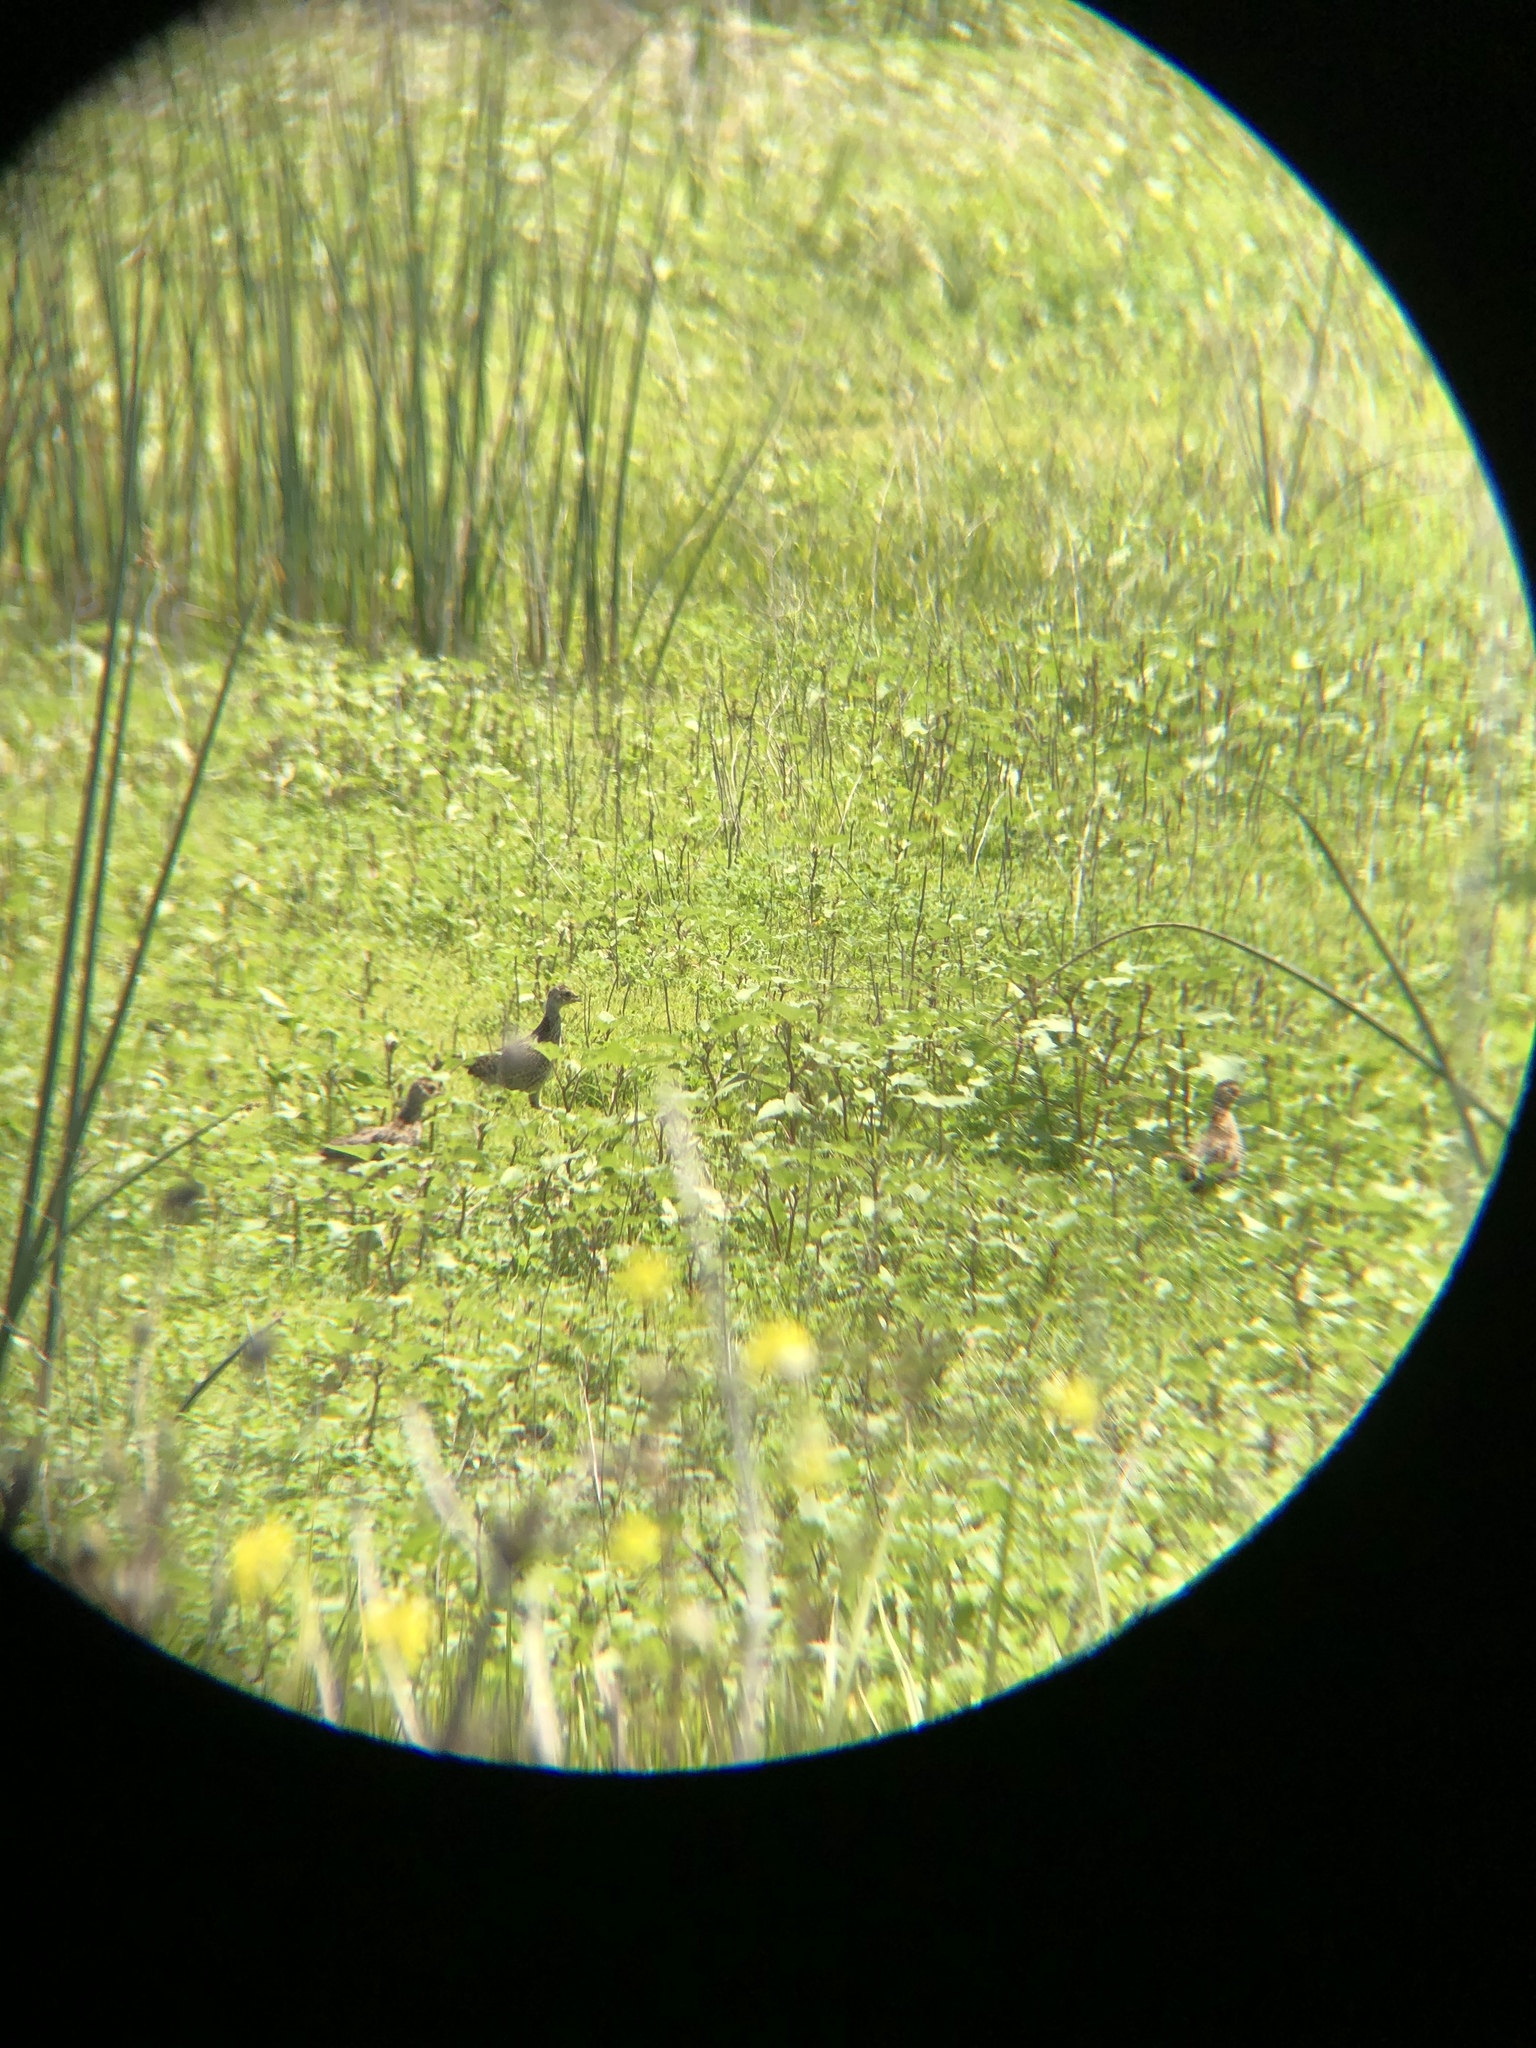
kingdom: Animalia
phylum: Chordata
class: Aves
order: Galliformes
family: Phasianidae
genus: Phasianus
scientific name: Phasianus colchicus
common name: Common pheasant
